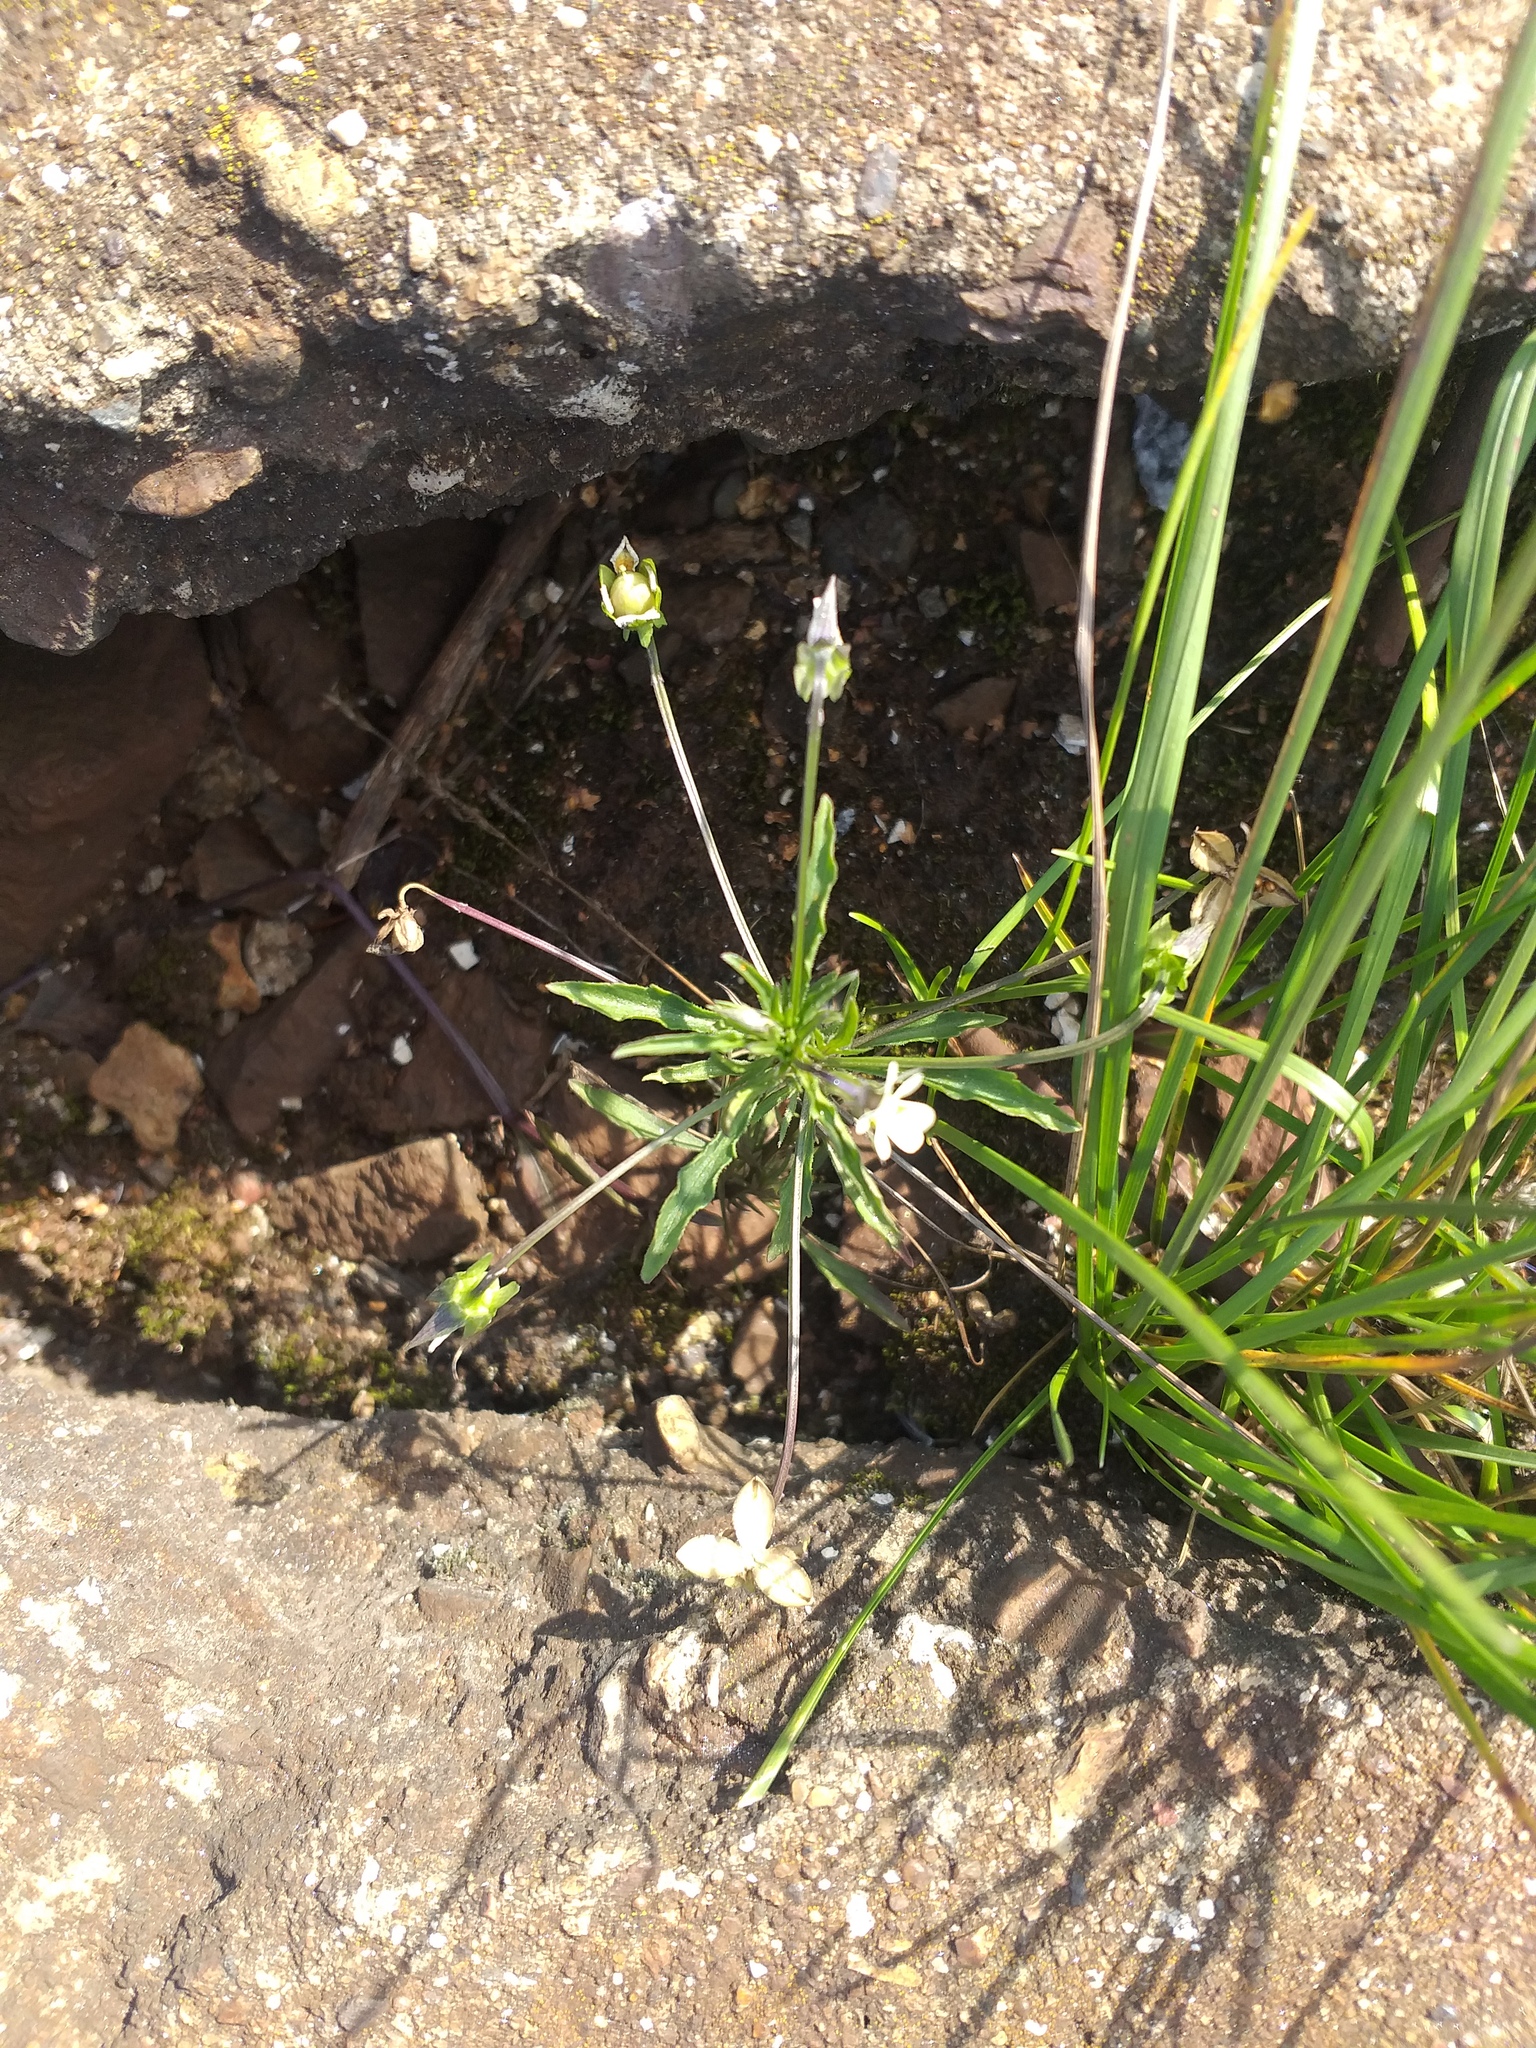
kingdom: Plantae
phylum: Tracheophyta
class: Magnoliopsida
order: Malpighiales
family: Violaceae
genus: Viola
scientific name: Viola arvensis
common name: Field pansy
